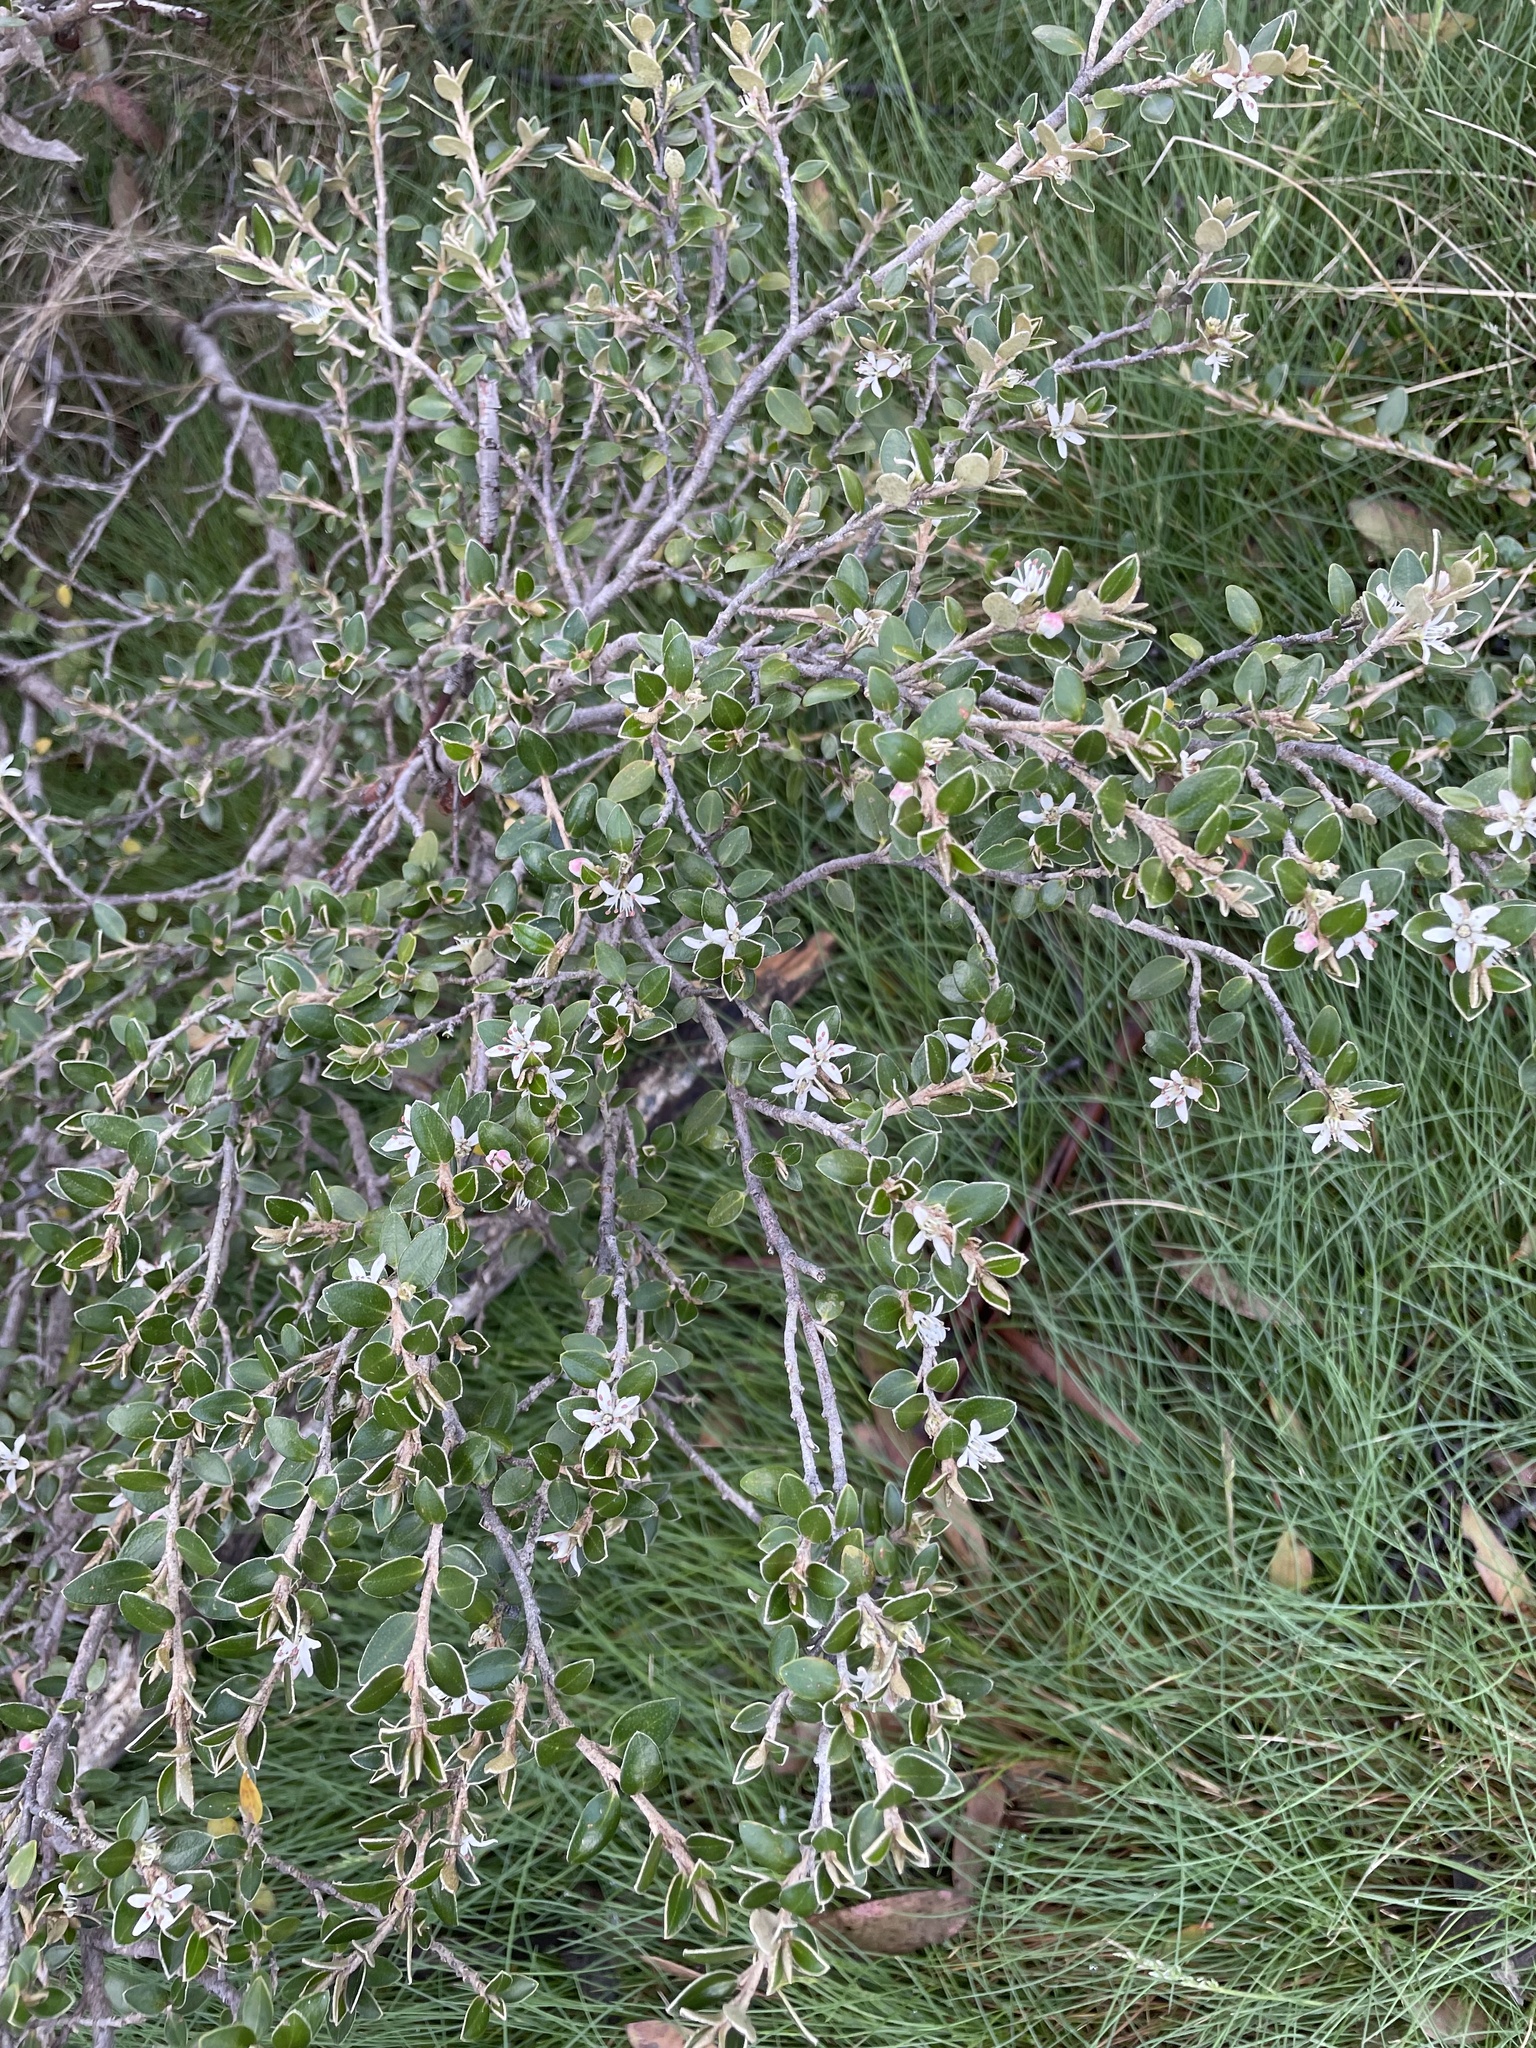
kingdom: Plantae
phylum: Tracheophyta
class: Magnoliopsida
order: Sapindales
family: Rutaceae
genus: Nematolepis
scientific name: Nematolepis ovatifolia
